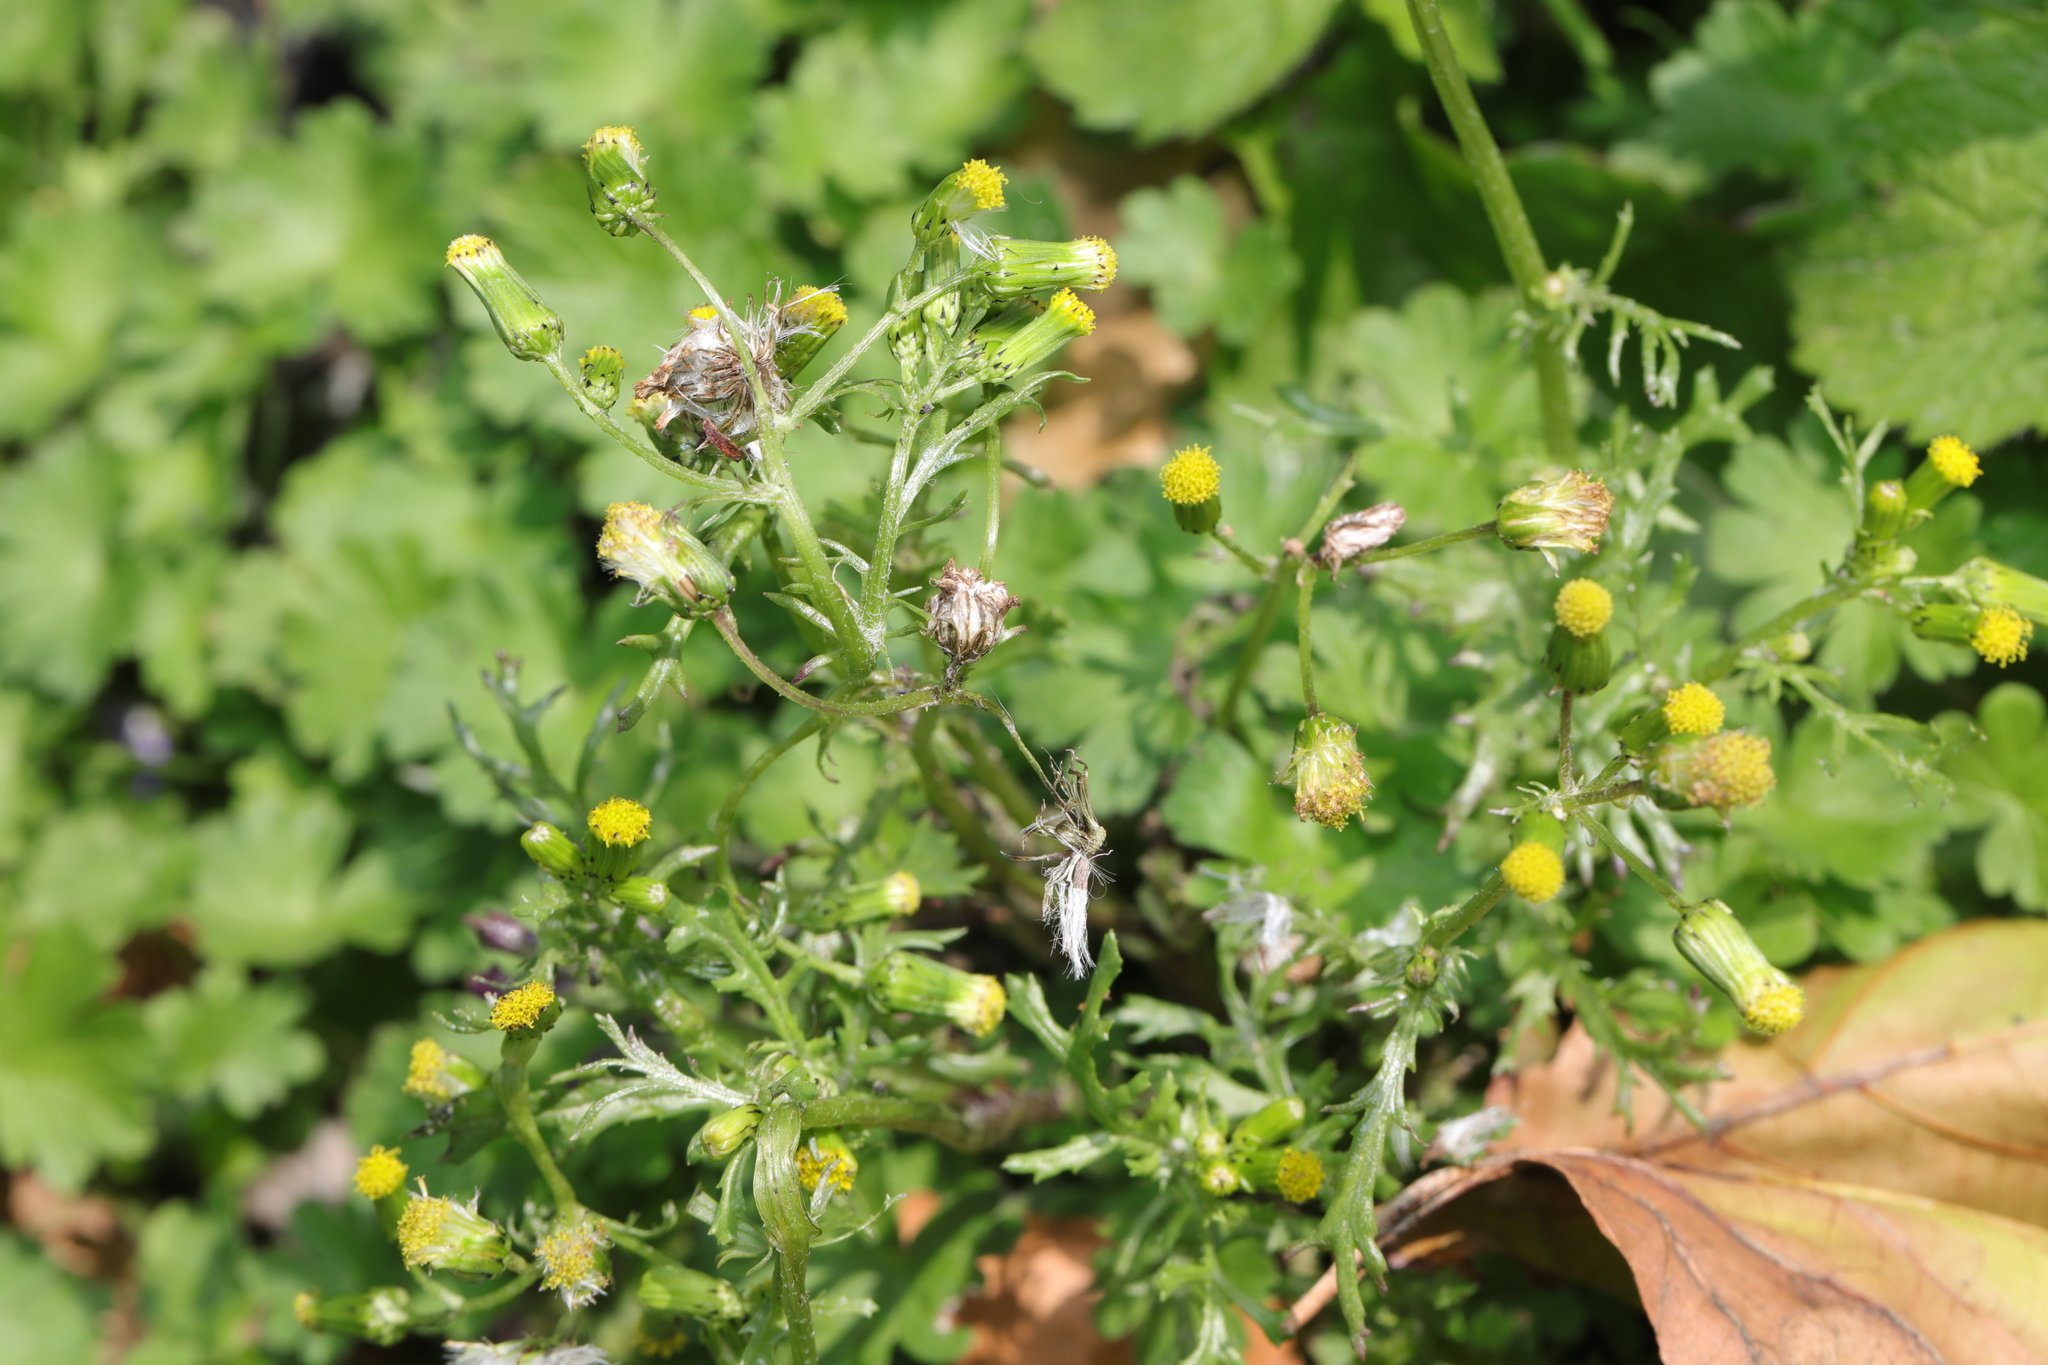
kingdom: Plantae
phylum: Tracheophyta
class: Magnoliopsida
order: Asterales
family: Asteraceae
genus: Senecio
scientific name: Senecio vulgaris
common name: Old-man-in-the-spring
